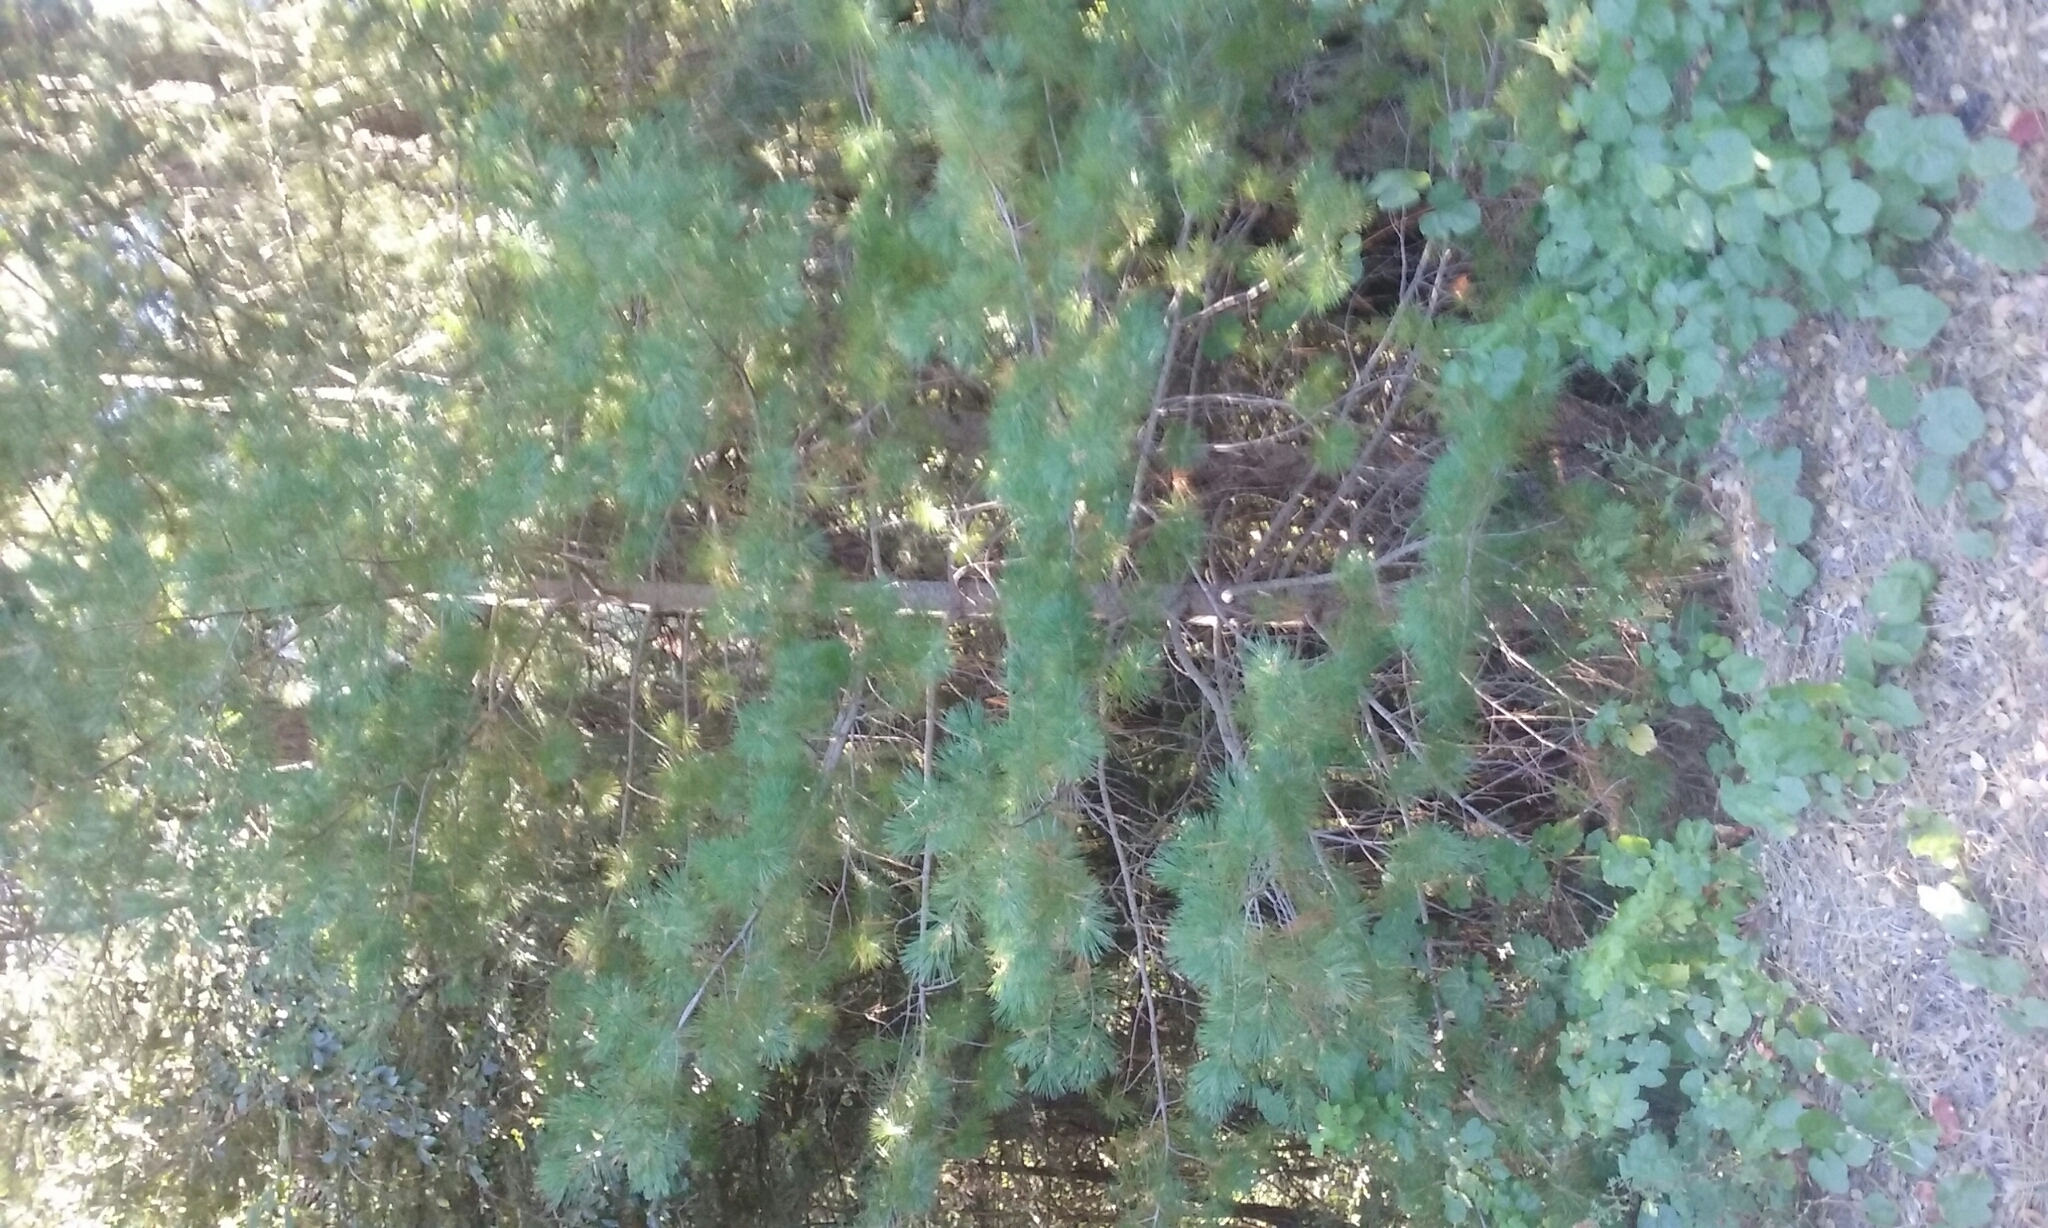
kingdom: Plantae
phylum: Tracheophyta
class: Pinopsida
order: Pinales
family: Pinaceae
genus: Pinus
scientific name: Pinus lambertiana
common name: Sugar pine
